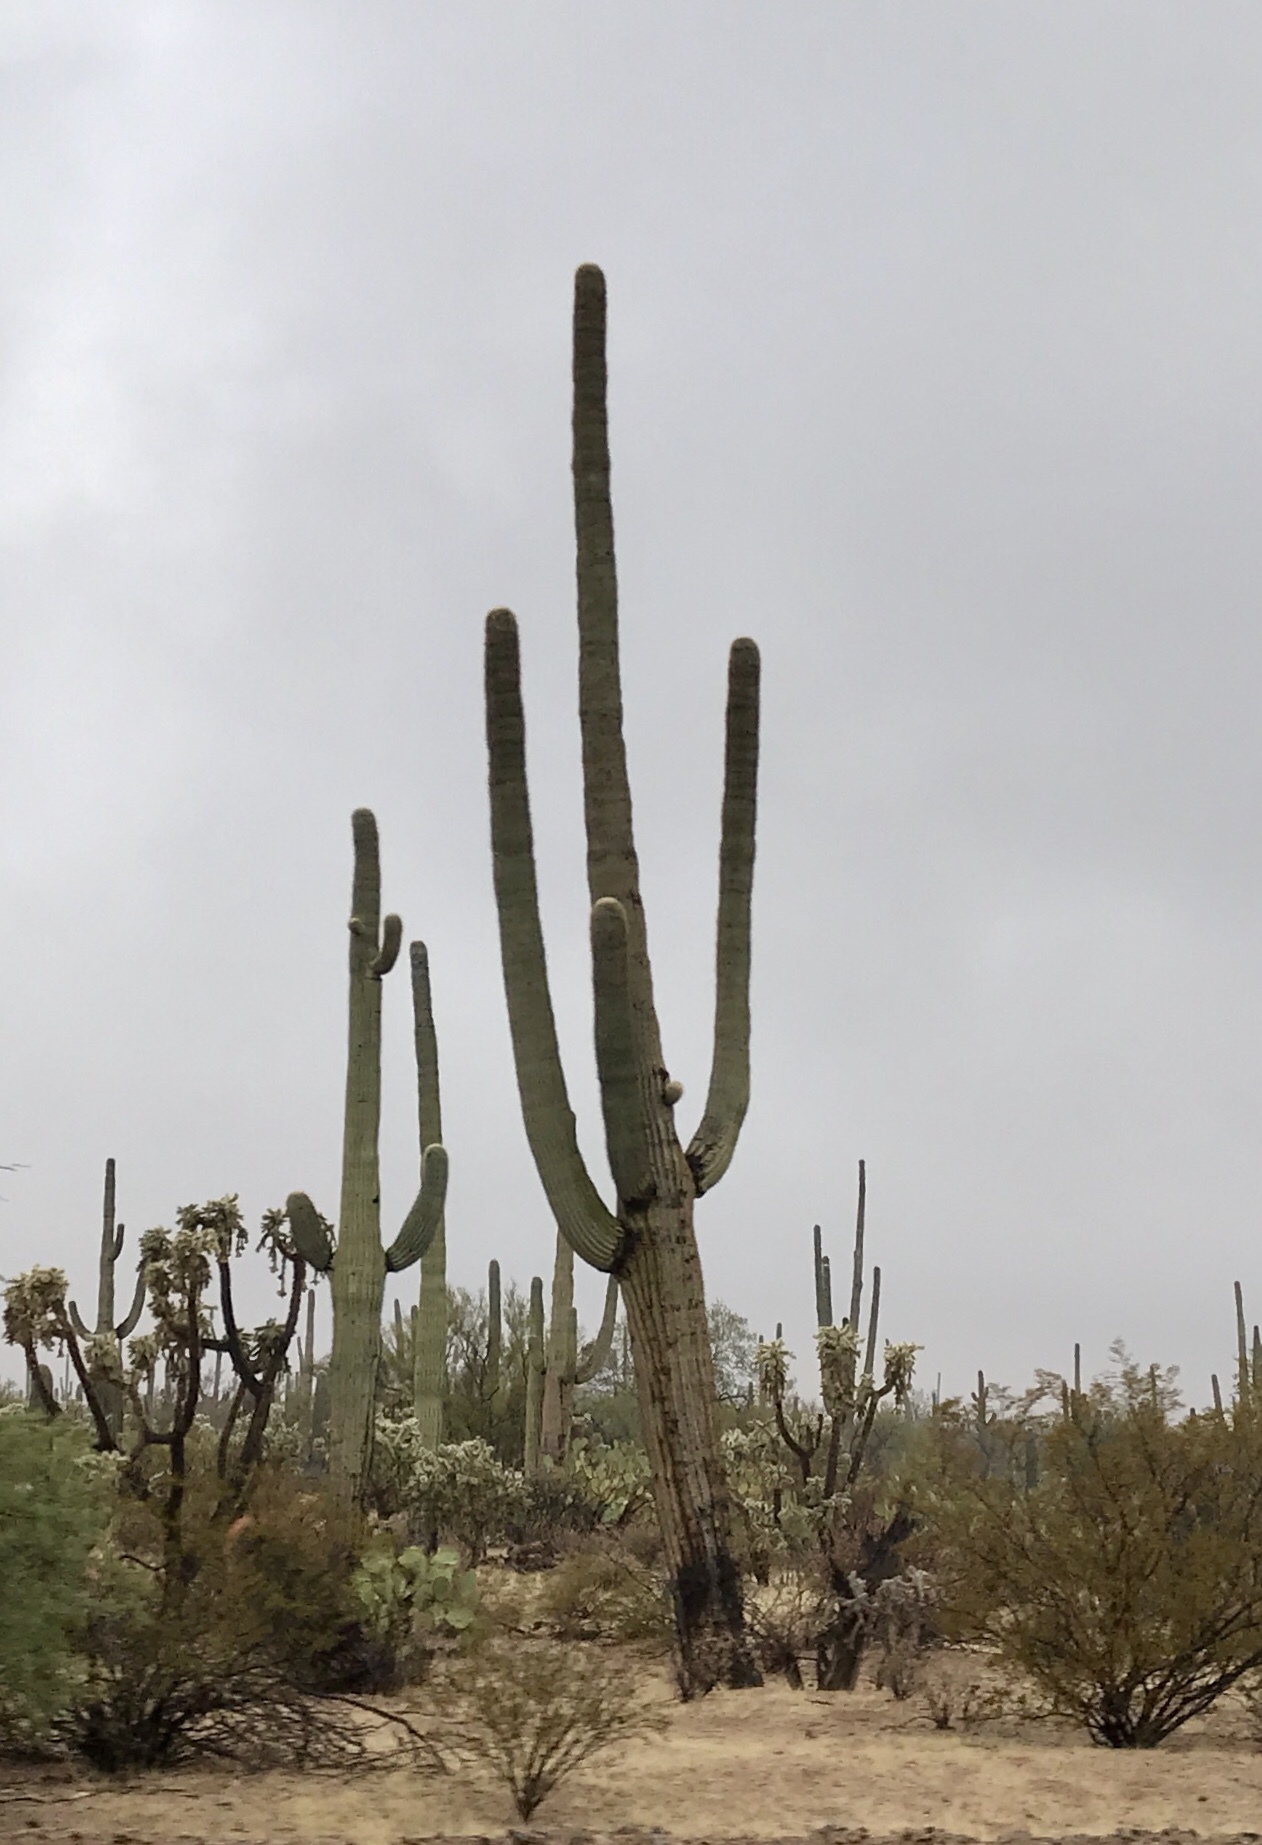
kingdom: Plantae
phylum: Tracheophyta
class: Magnoliopsida
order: Caryophyllales
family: Cactaceae
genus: Carnegiea
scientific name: Carnegiea gigantea
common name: Saguaro
